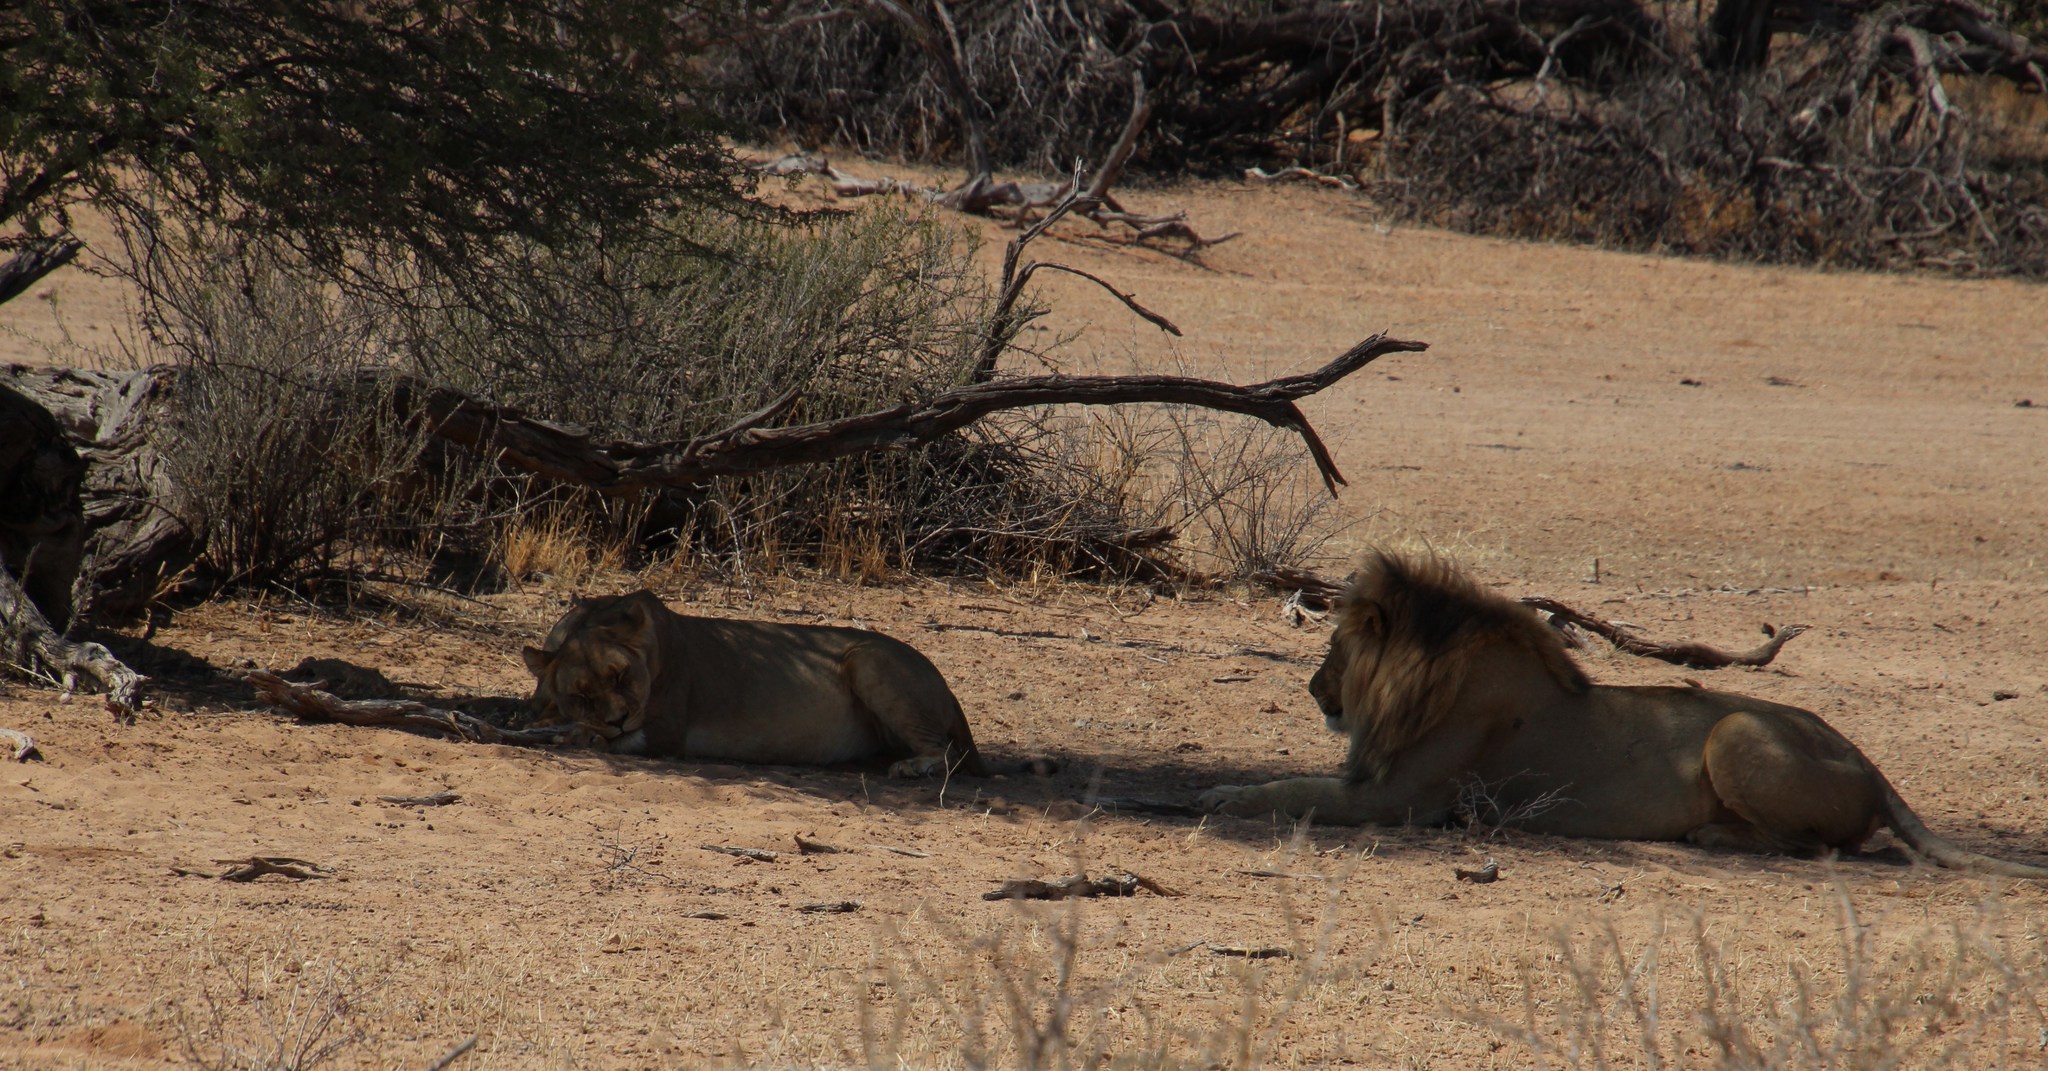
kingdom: Animalia
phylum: Chordata
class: Mammalia
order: Carnivora
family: Felidae
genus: Panthera
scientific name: Panthera leo
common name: Lion
